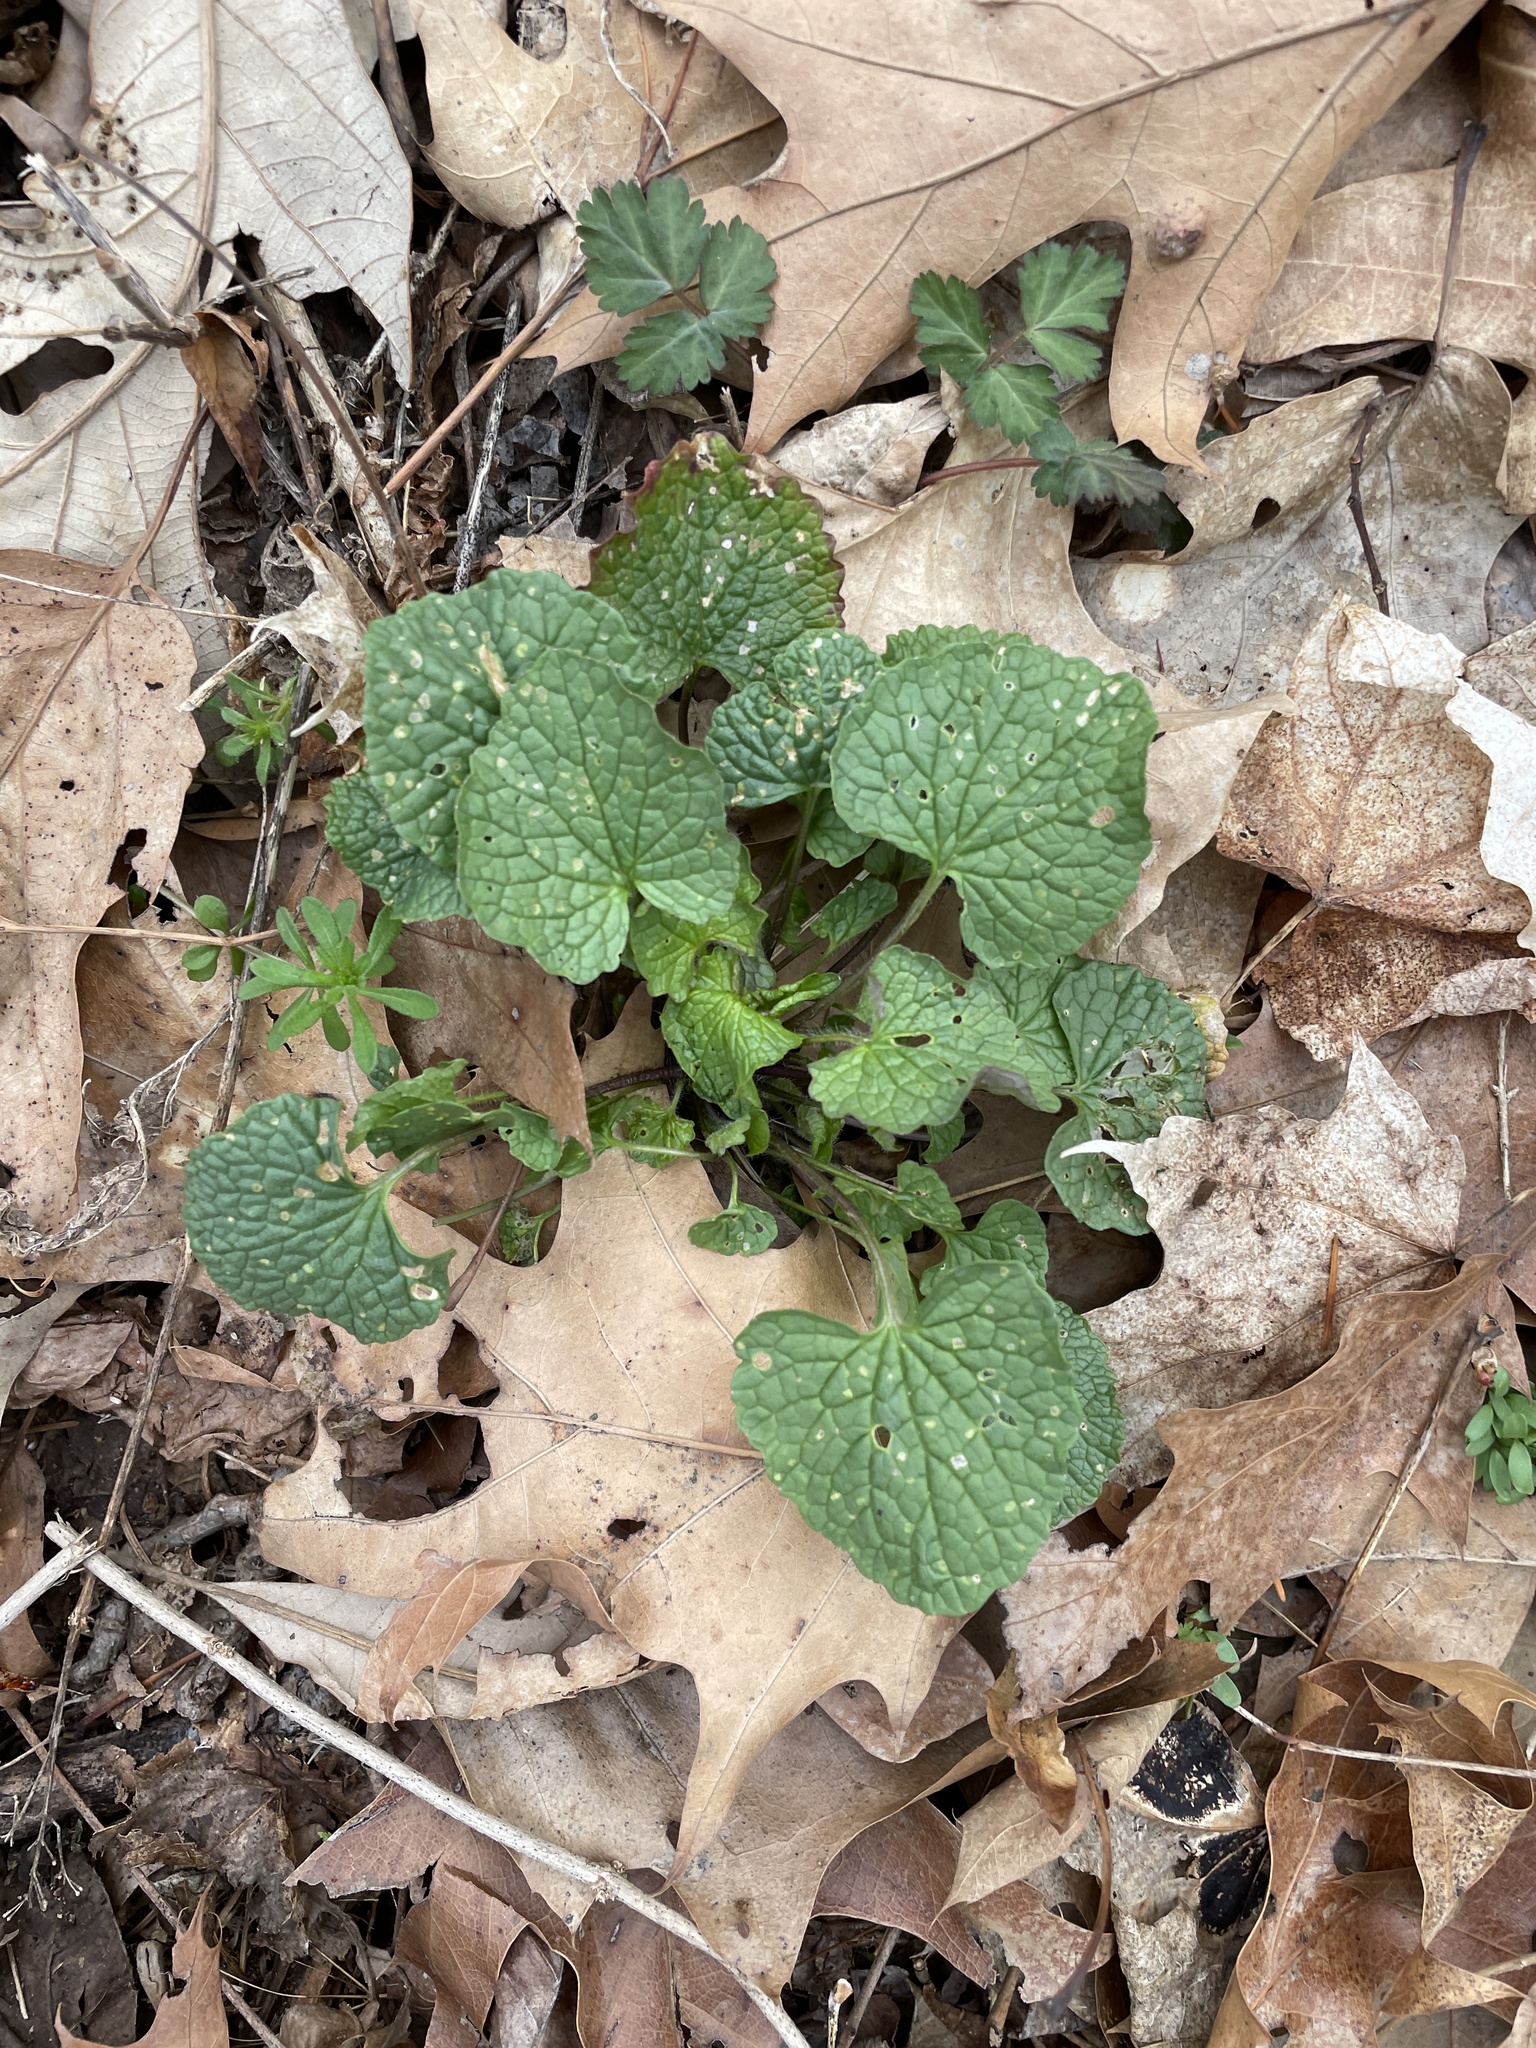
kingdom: Plantae
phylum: Tracheophyta
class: Magnoliopsida
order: Brassicales
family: Brassicaceae
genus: Alliaria
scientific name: Alliaria petiolata
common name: Garlic mustard
